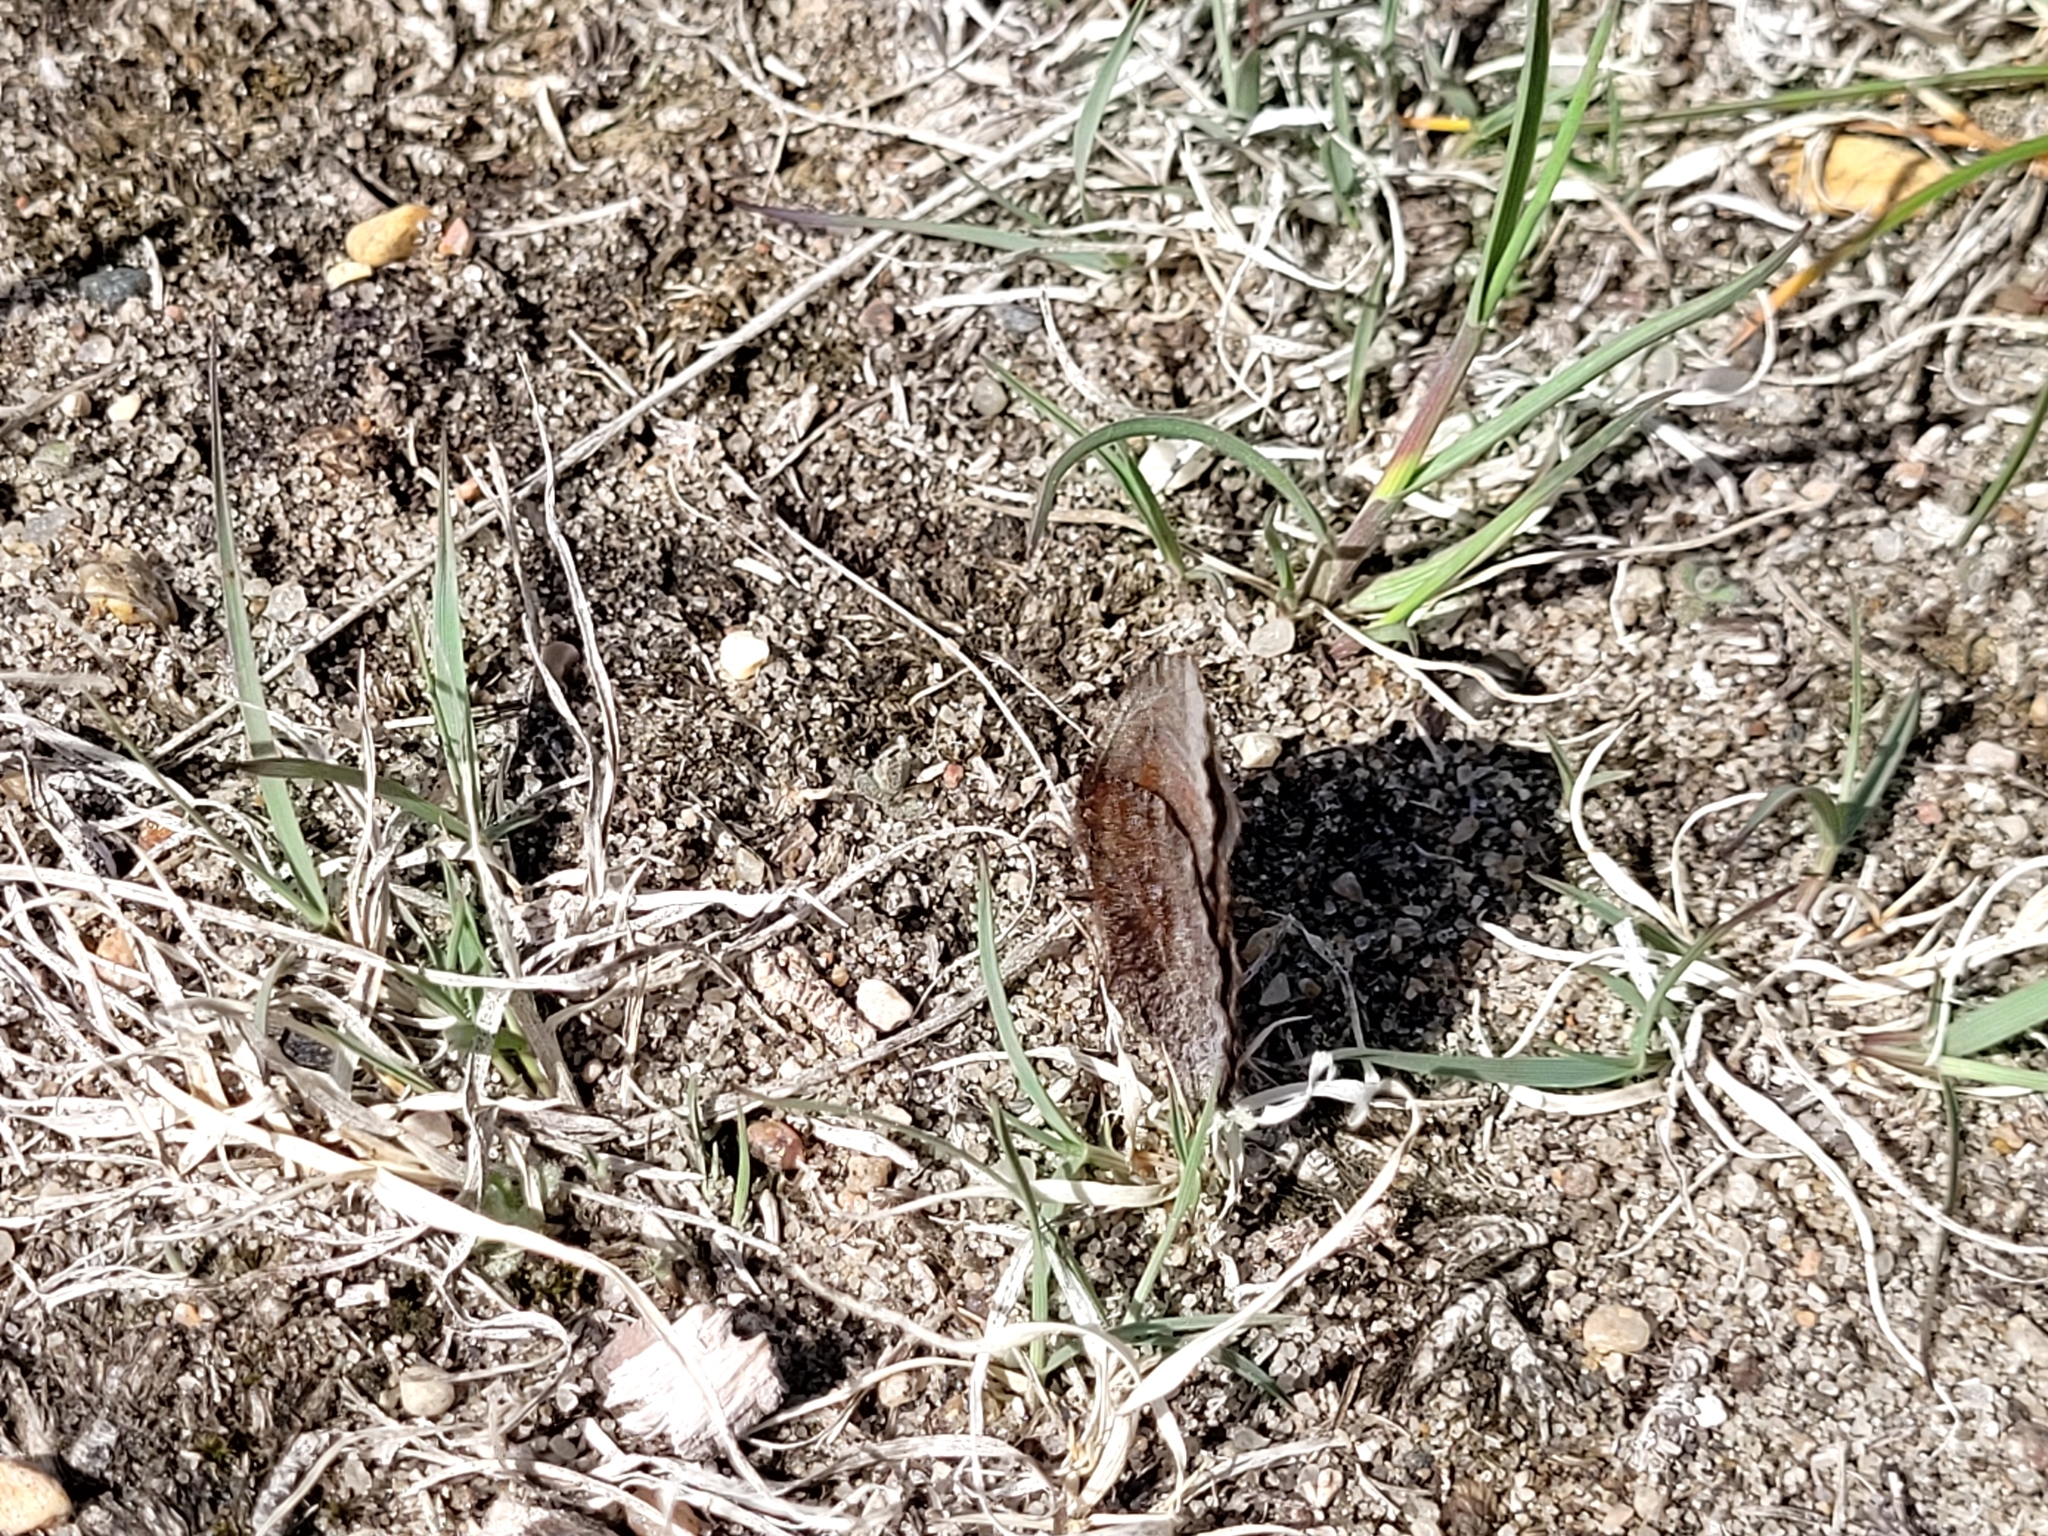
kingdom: Animalia
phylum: Arthropoda
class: Insecta
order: Lepidoptera
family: Nymphalidae
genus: Erebia
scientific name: Erebia discoidalis
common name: Red-disked alpine
